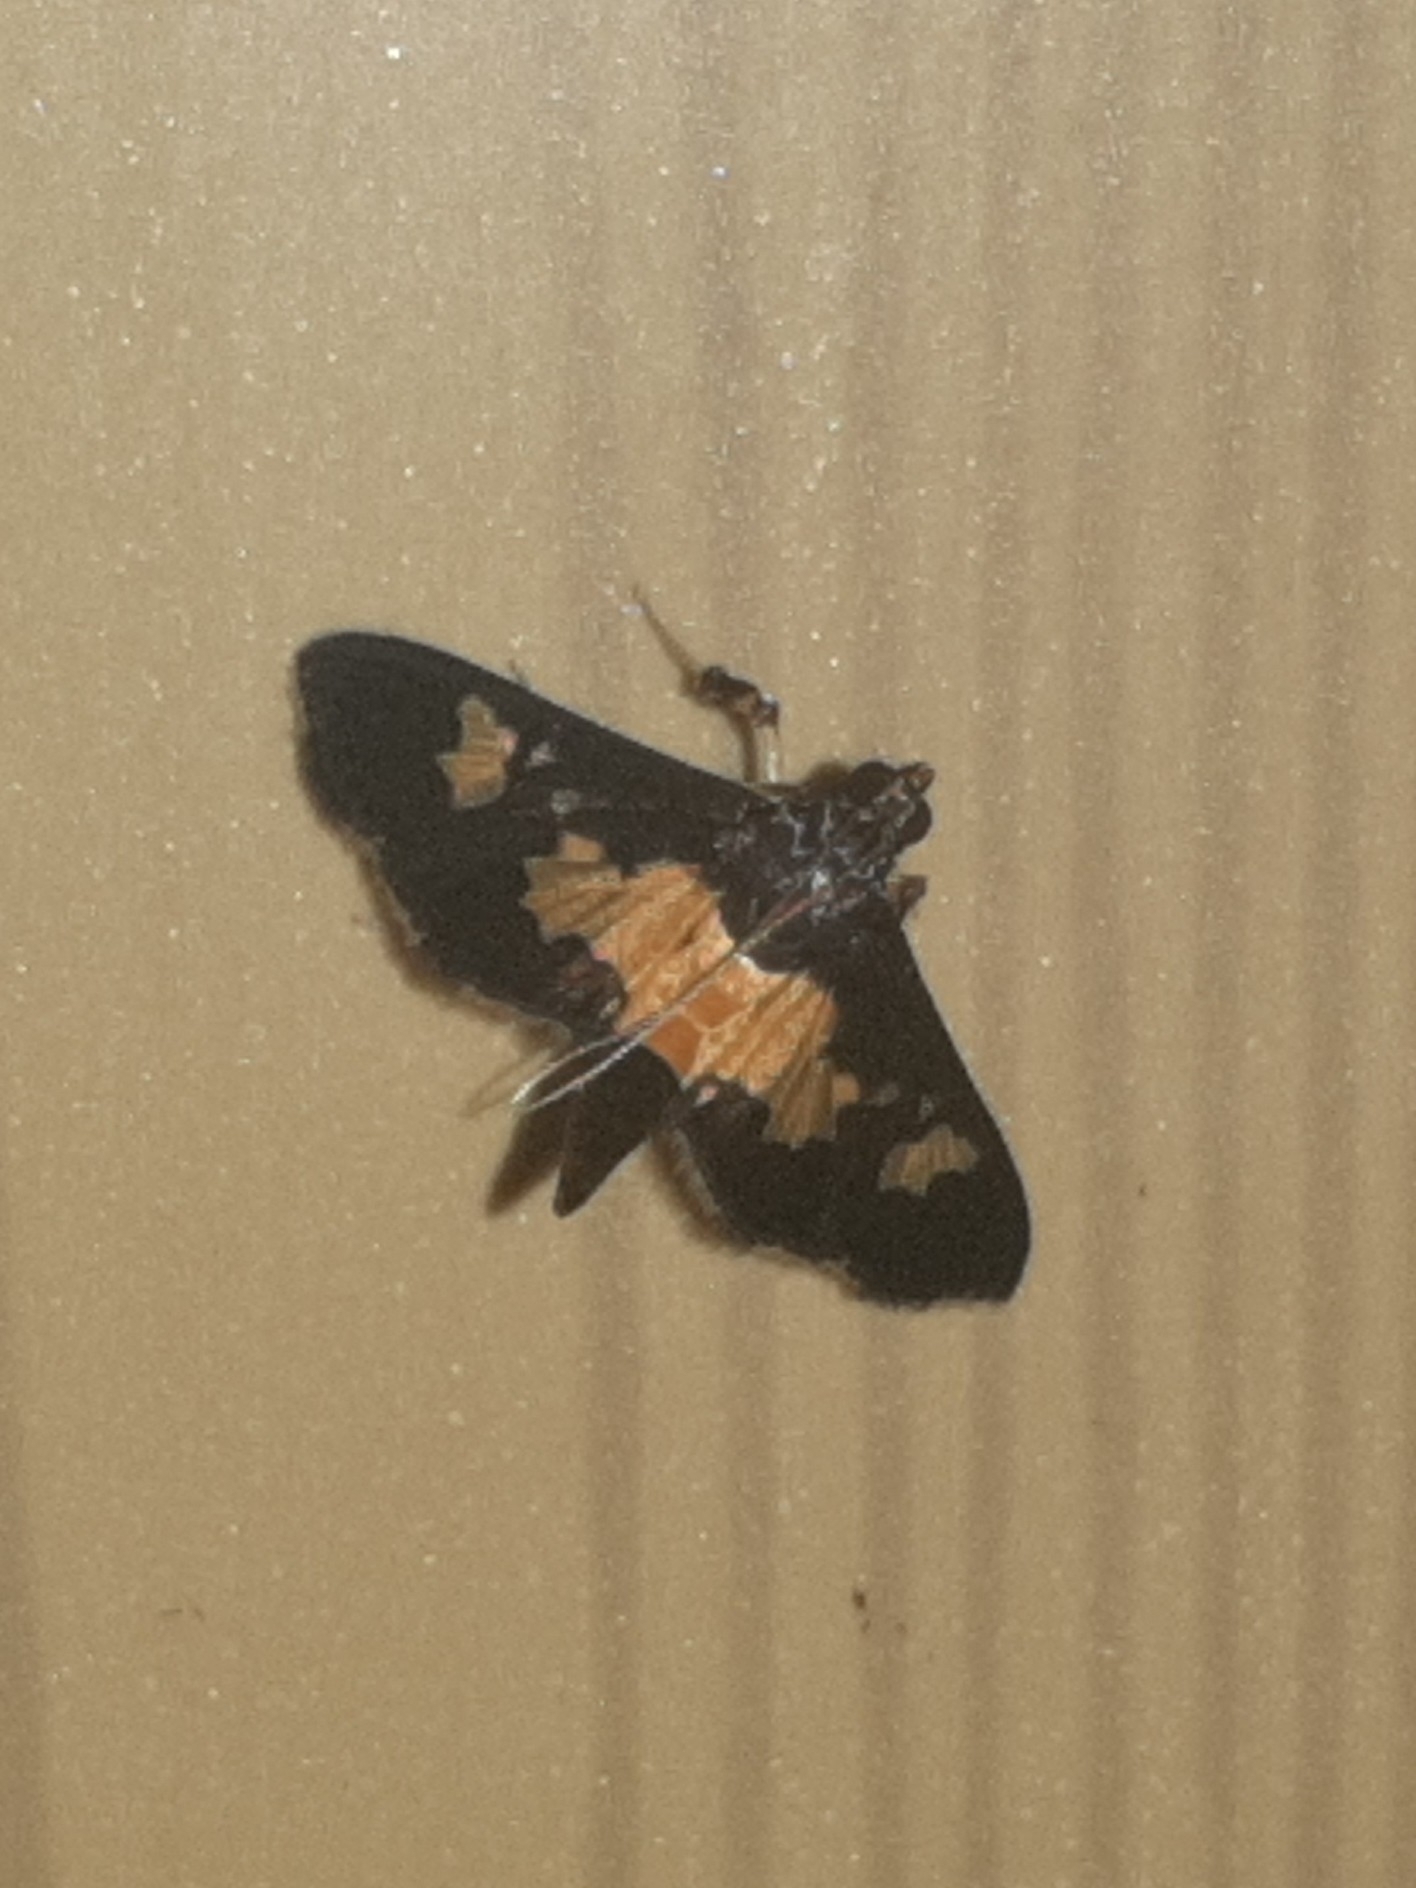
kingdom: Animalia
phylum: Arthropoda
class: Insecta
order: Lepidoptera
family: Crambidae
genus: Salbia
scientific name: Salbia zena
